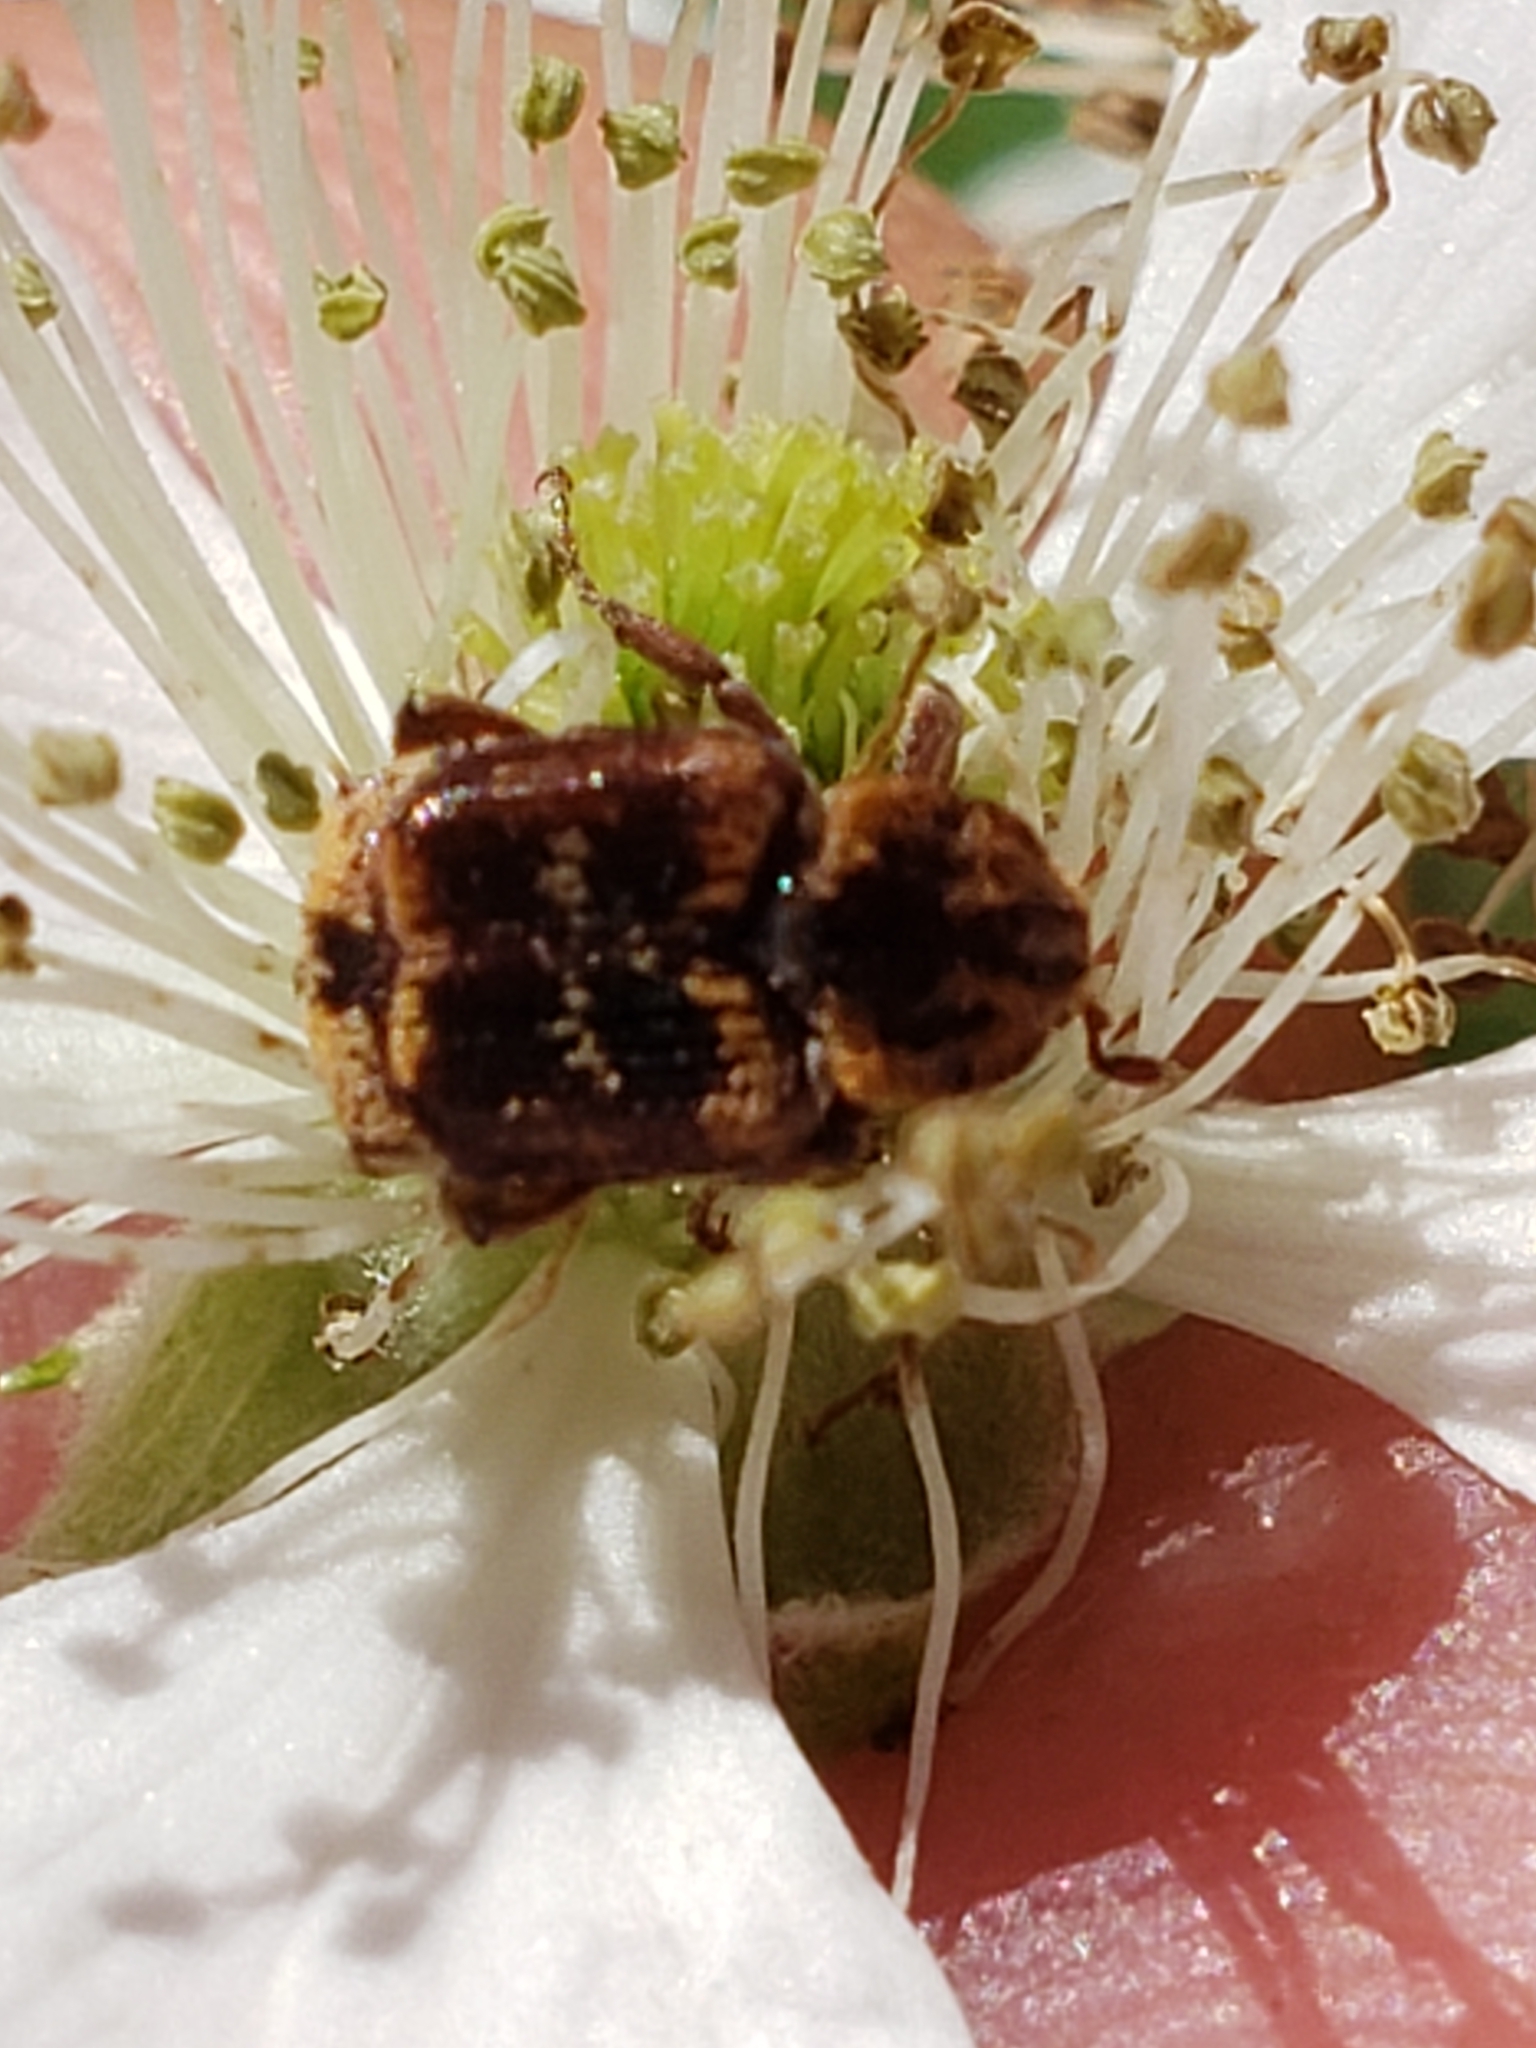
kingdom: Animalia
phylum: Arthropoda
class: Insecta
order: Coleoptera
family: Scarabaeidae
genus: Valgus
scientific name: Valgus canaliculatus
